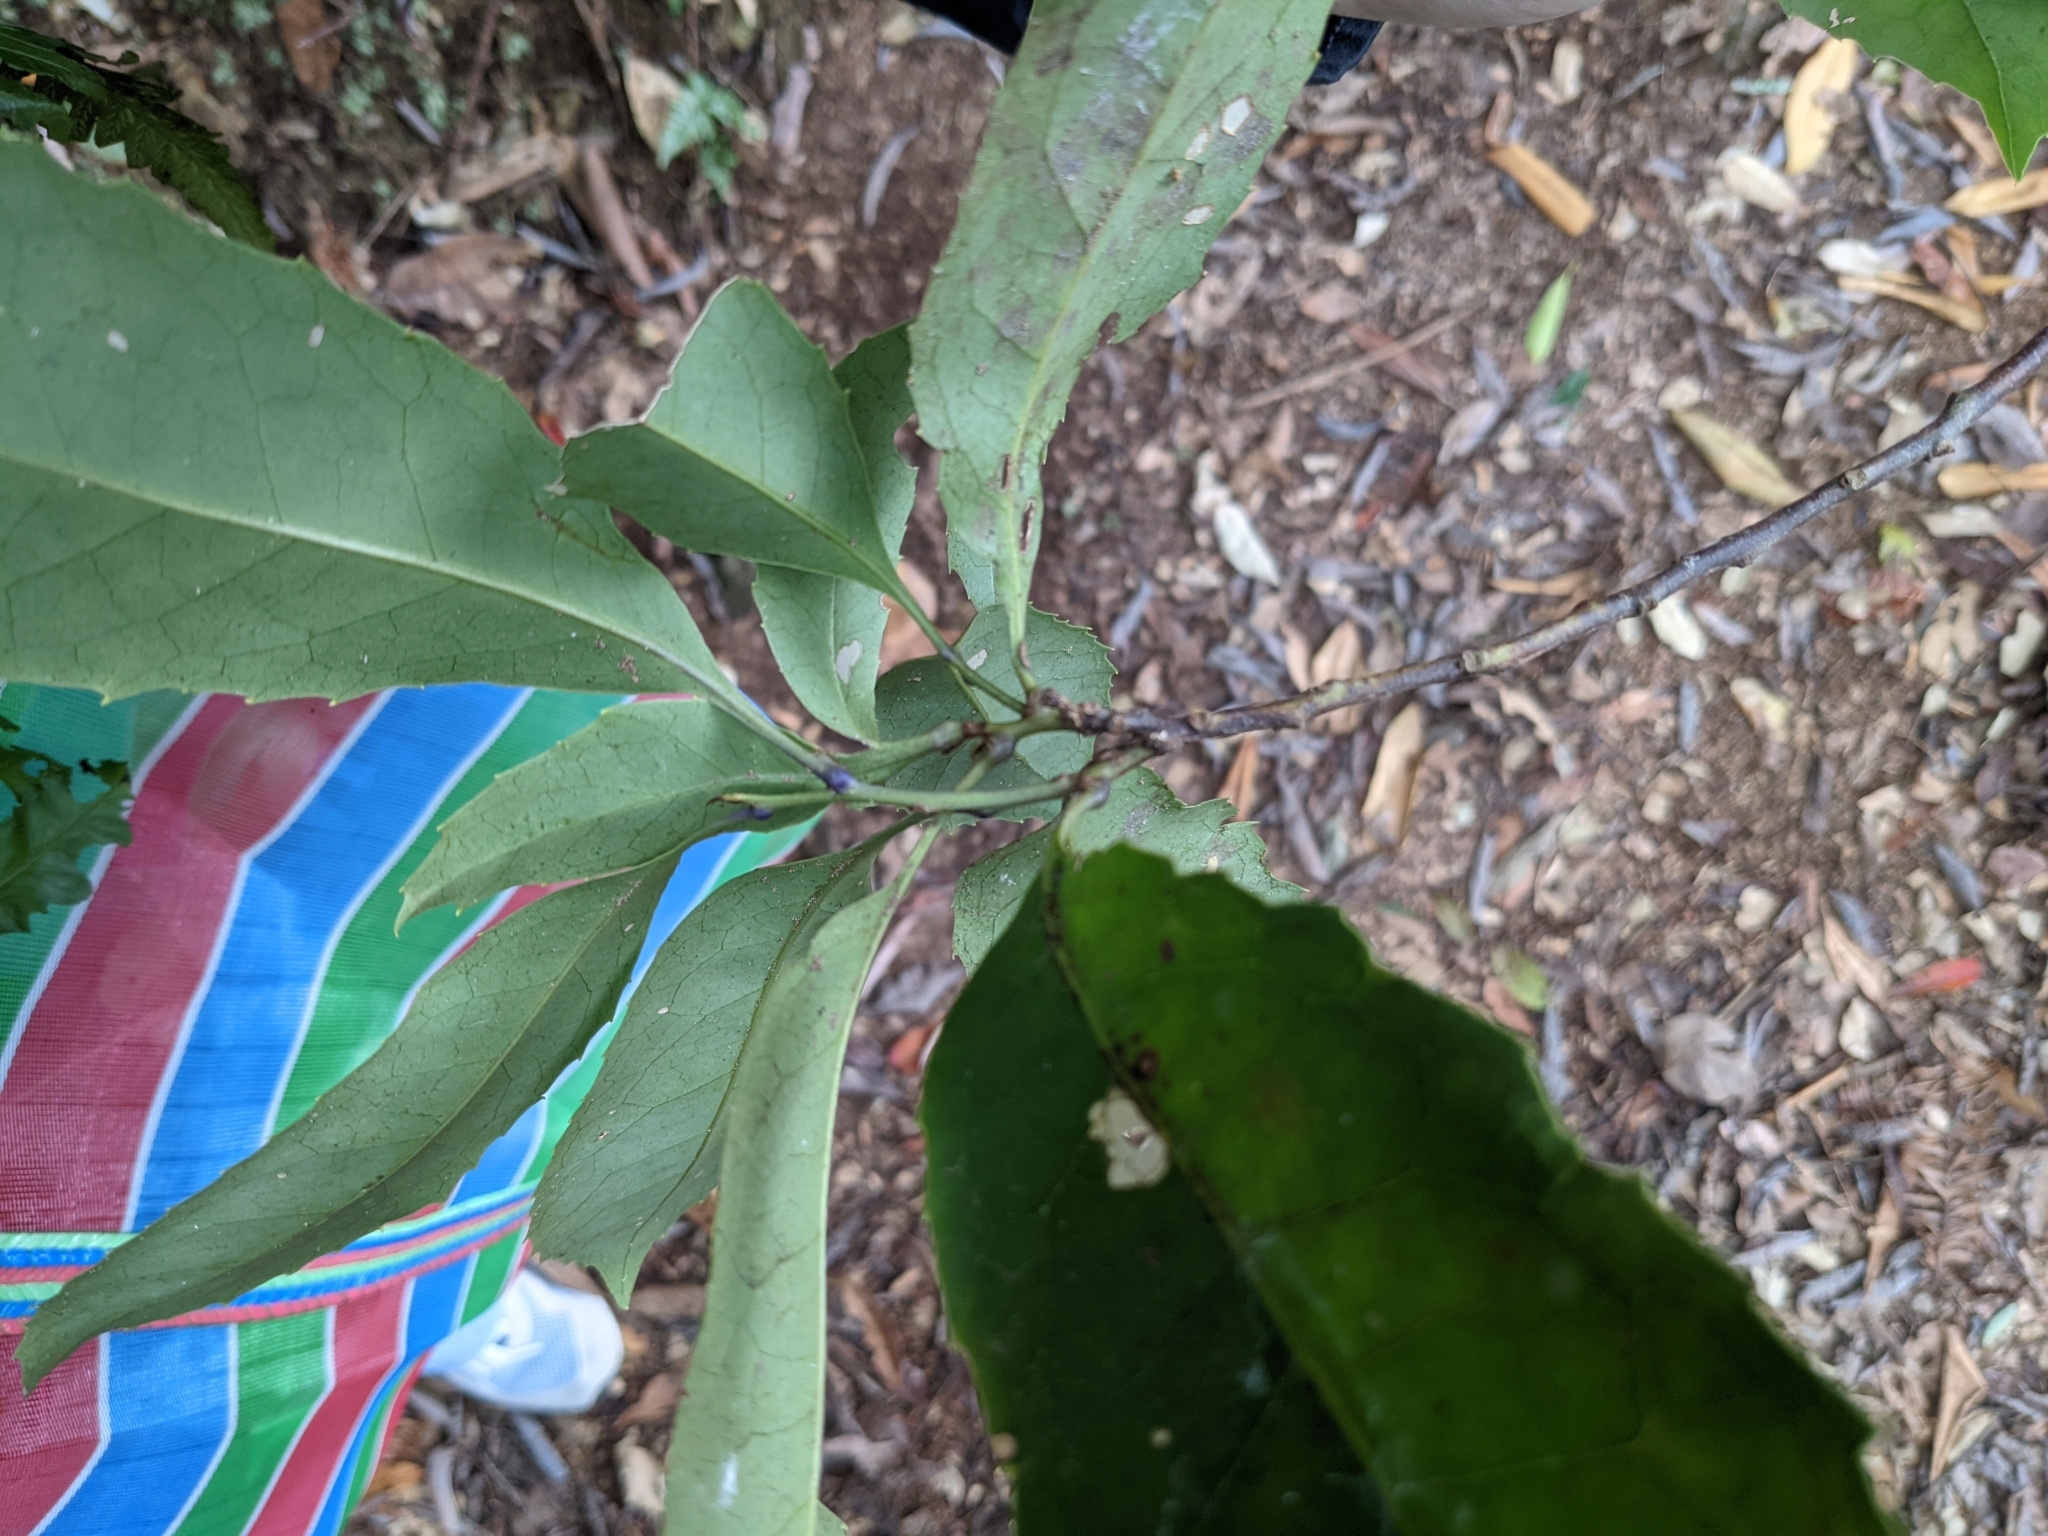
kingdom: Plantae
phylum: Tracheophyta
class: Magnoliopsida
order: Proteales
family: Proteaceae
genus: Helicia
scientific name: Helicia rengetiensis
